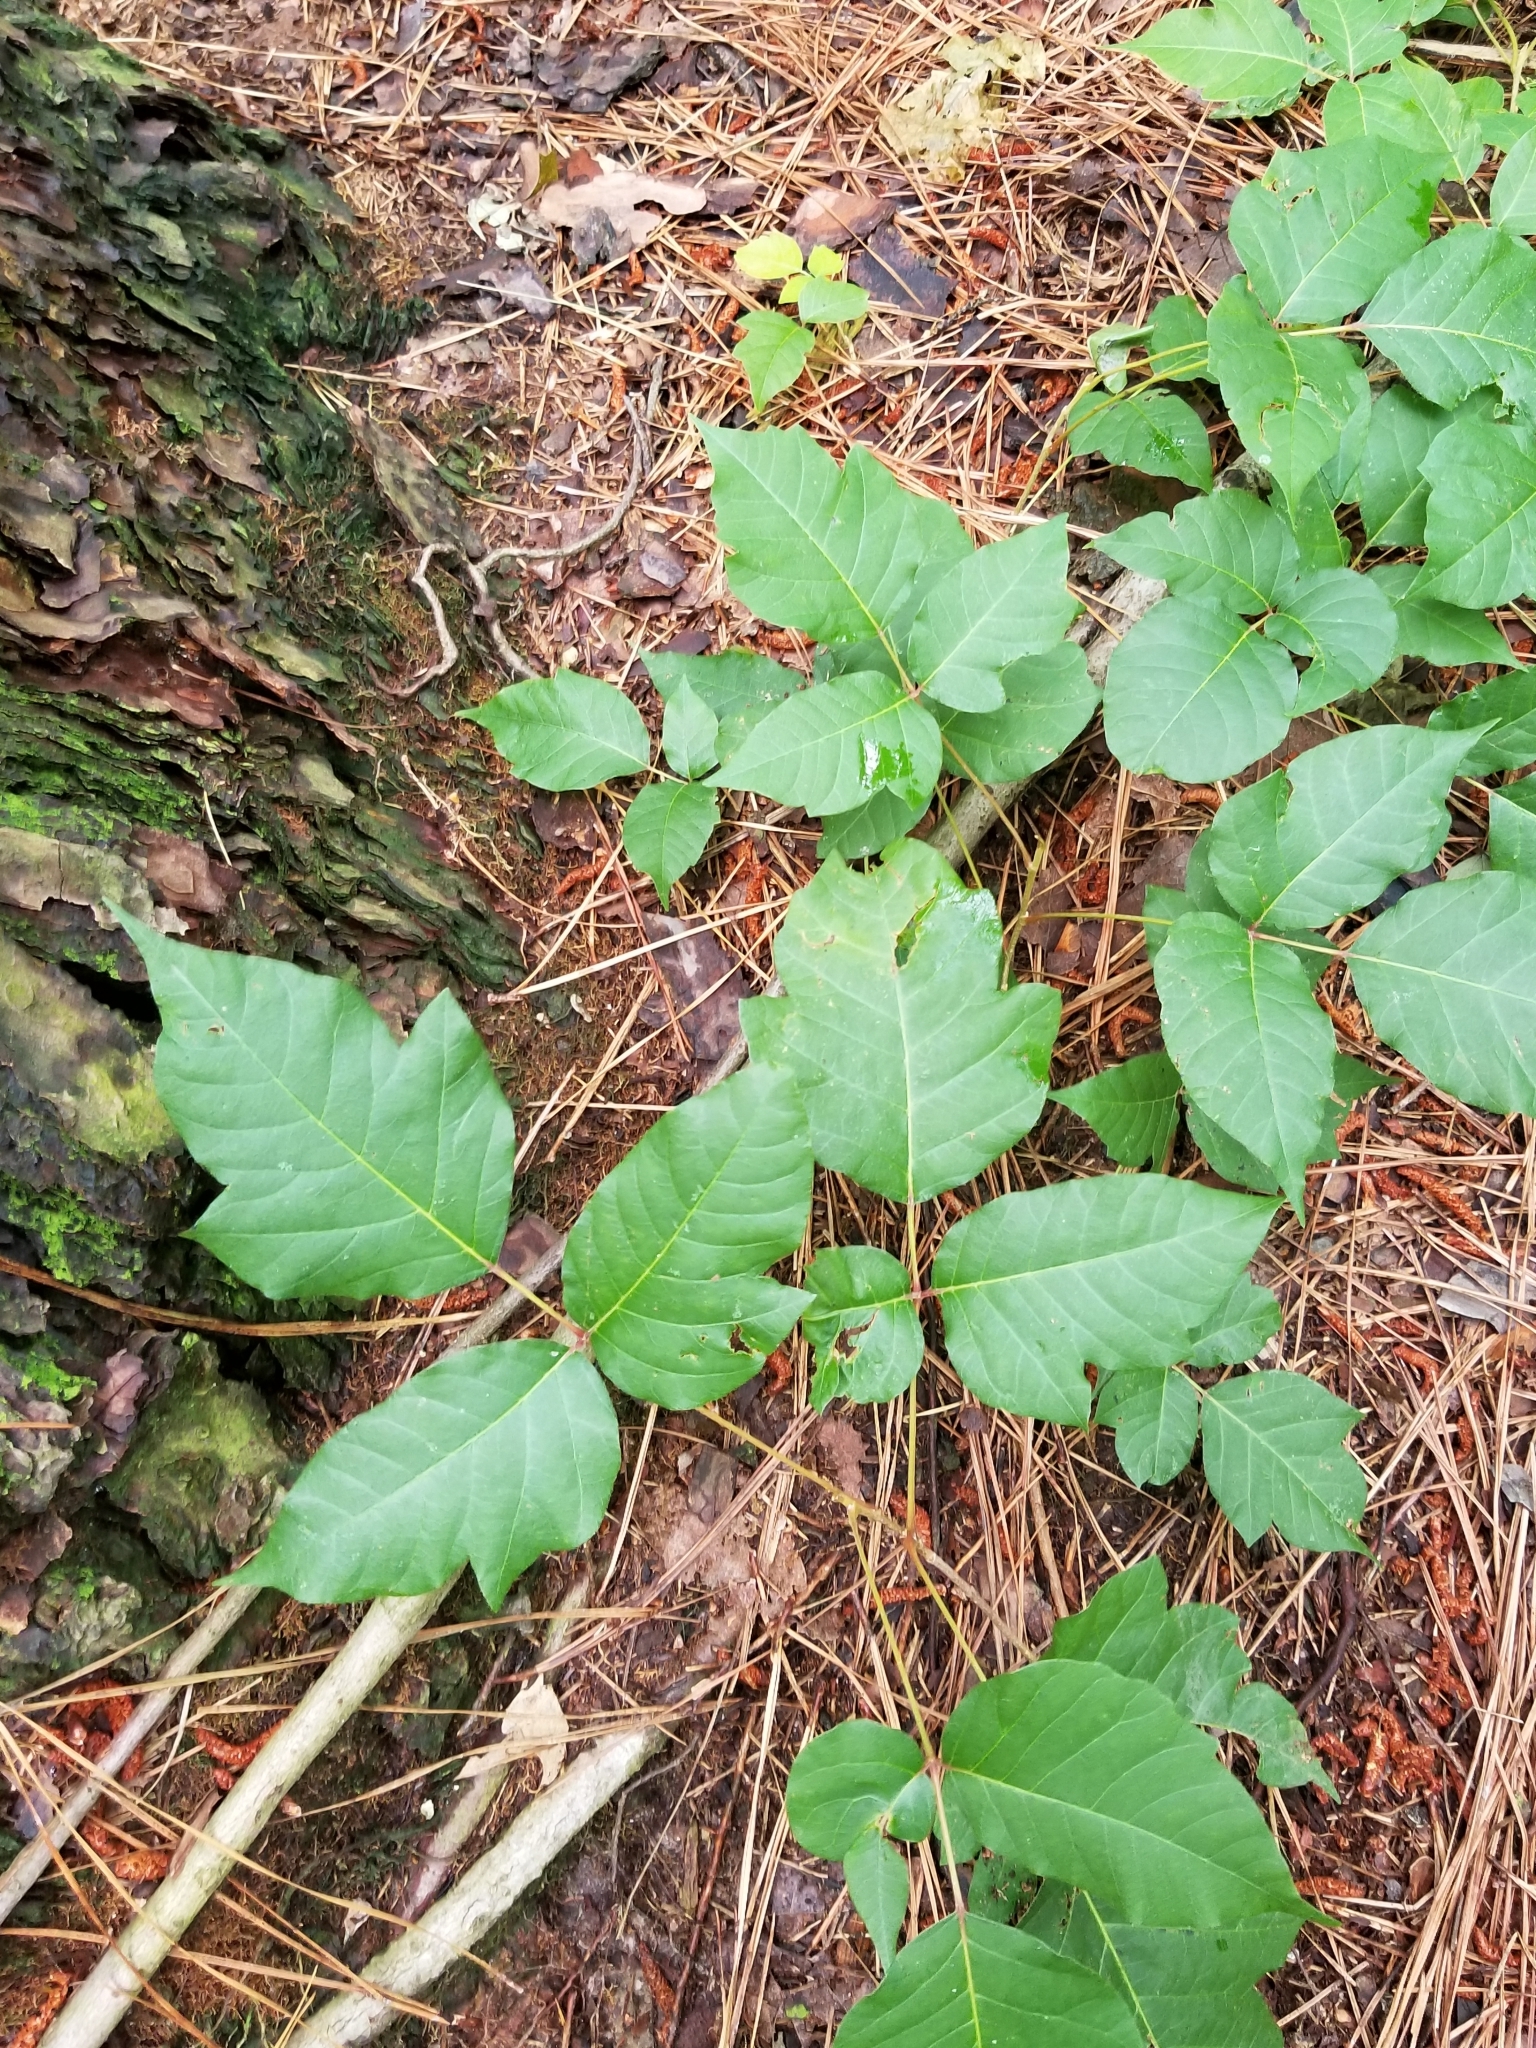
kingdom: Plantae
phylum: Tracheophyta
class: Magnoliopsida
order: Sapindales
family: Anacardiaceae
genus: Toxicodendron
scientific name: Toxicodendron radicans
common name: Poison ivy
